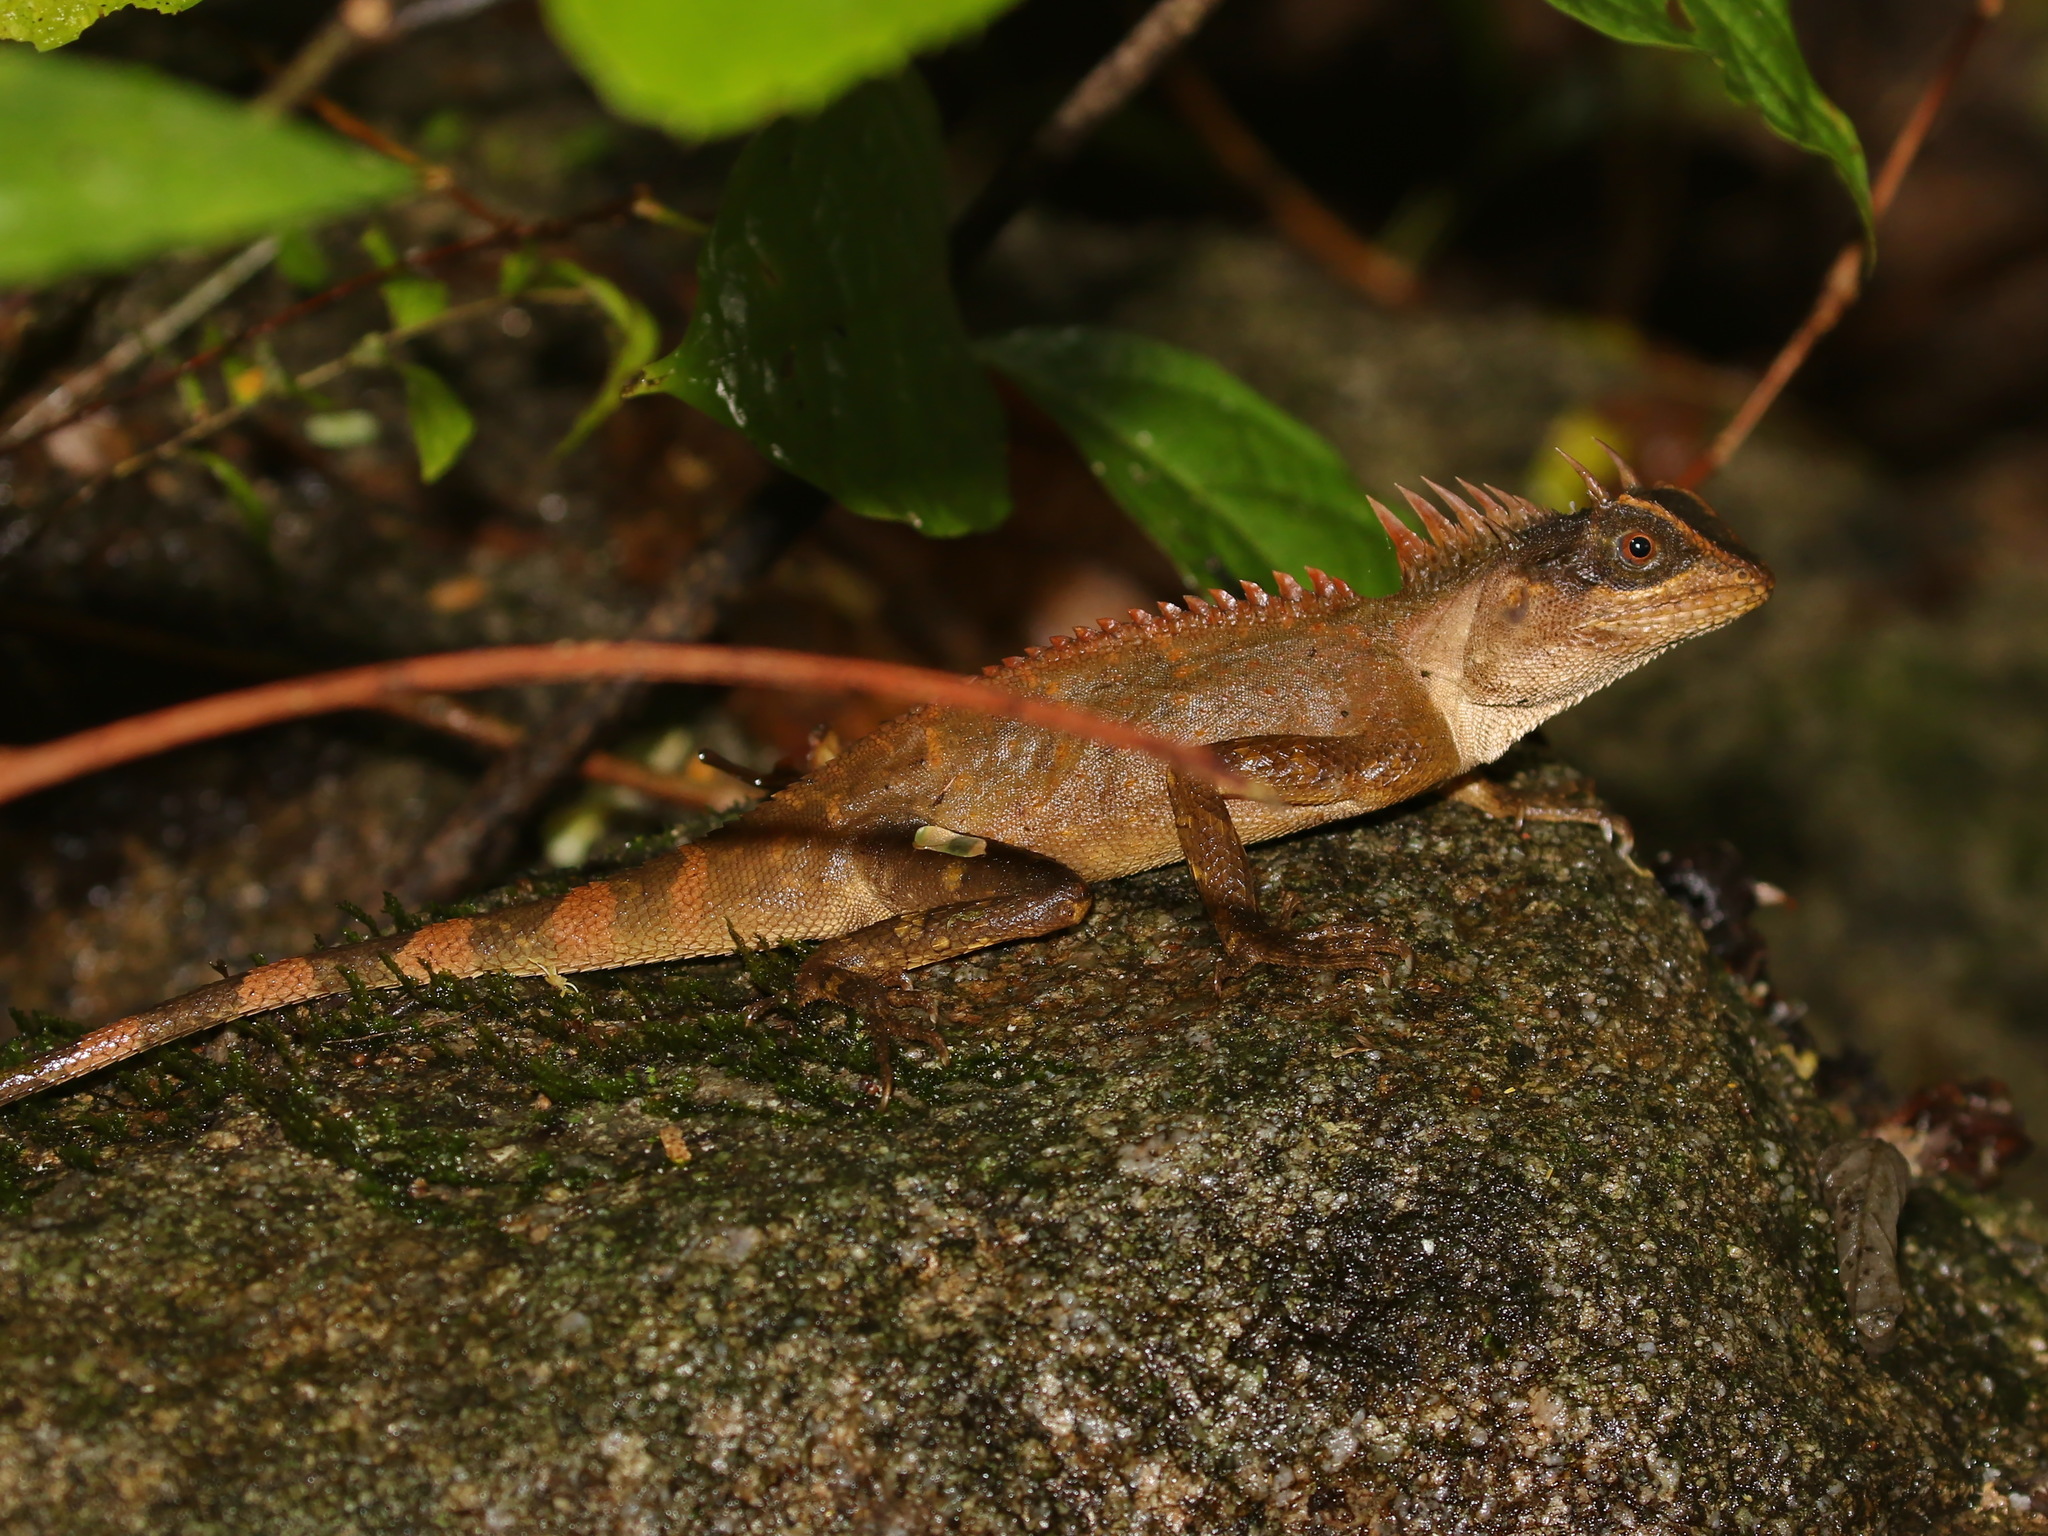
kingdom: Animalia
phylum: Chordata
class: Squamata
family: Agamidae
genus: Acanthosaura
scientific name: Acanthosaura aurantiacrista
